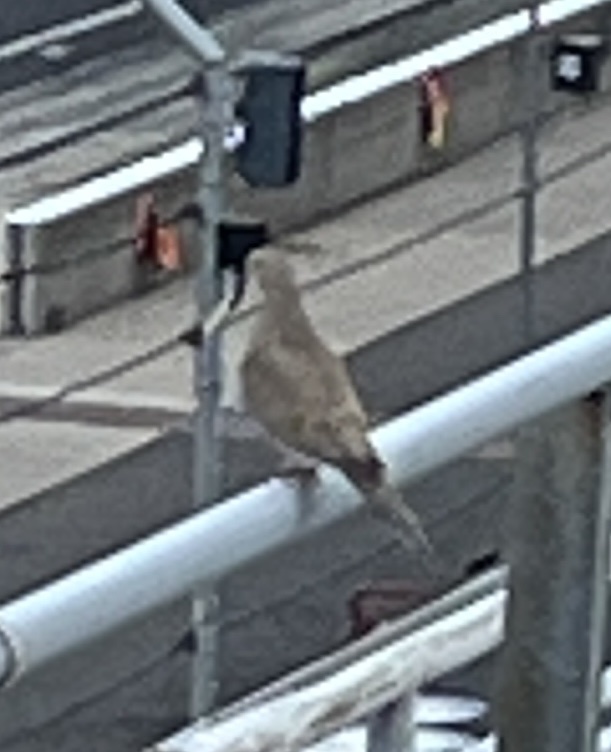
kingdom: Animalia
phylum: Chordata
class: Aves
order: Columbiformes
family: Columbidae
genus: Zenaida
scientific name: Zenaida macroura
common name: Mourning dove
